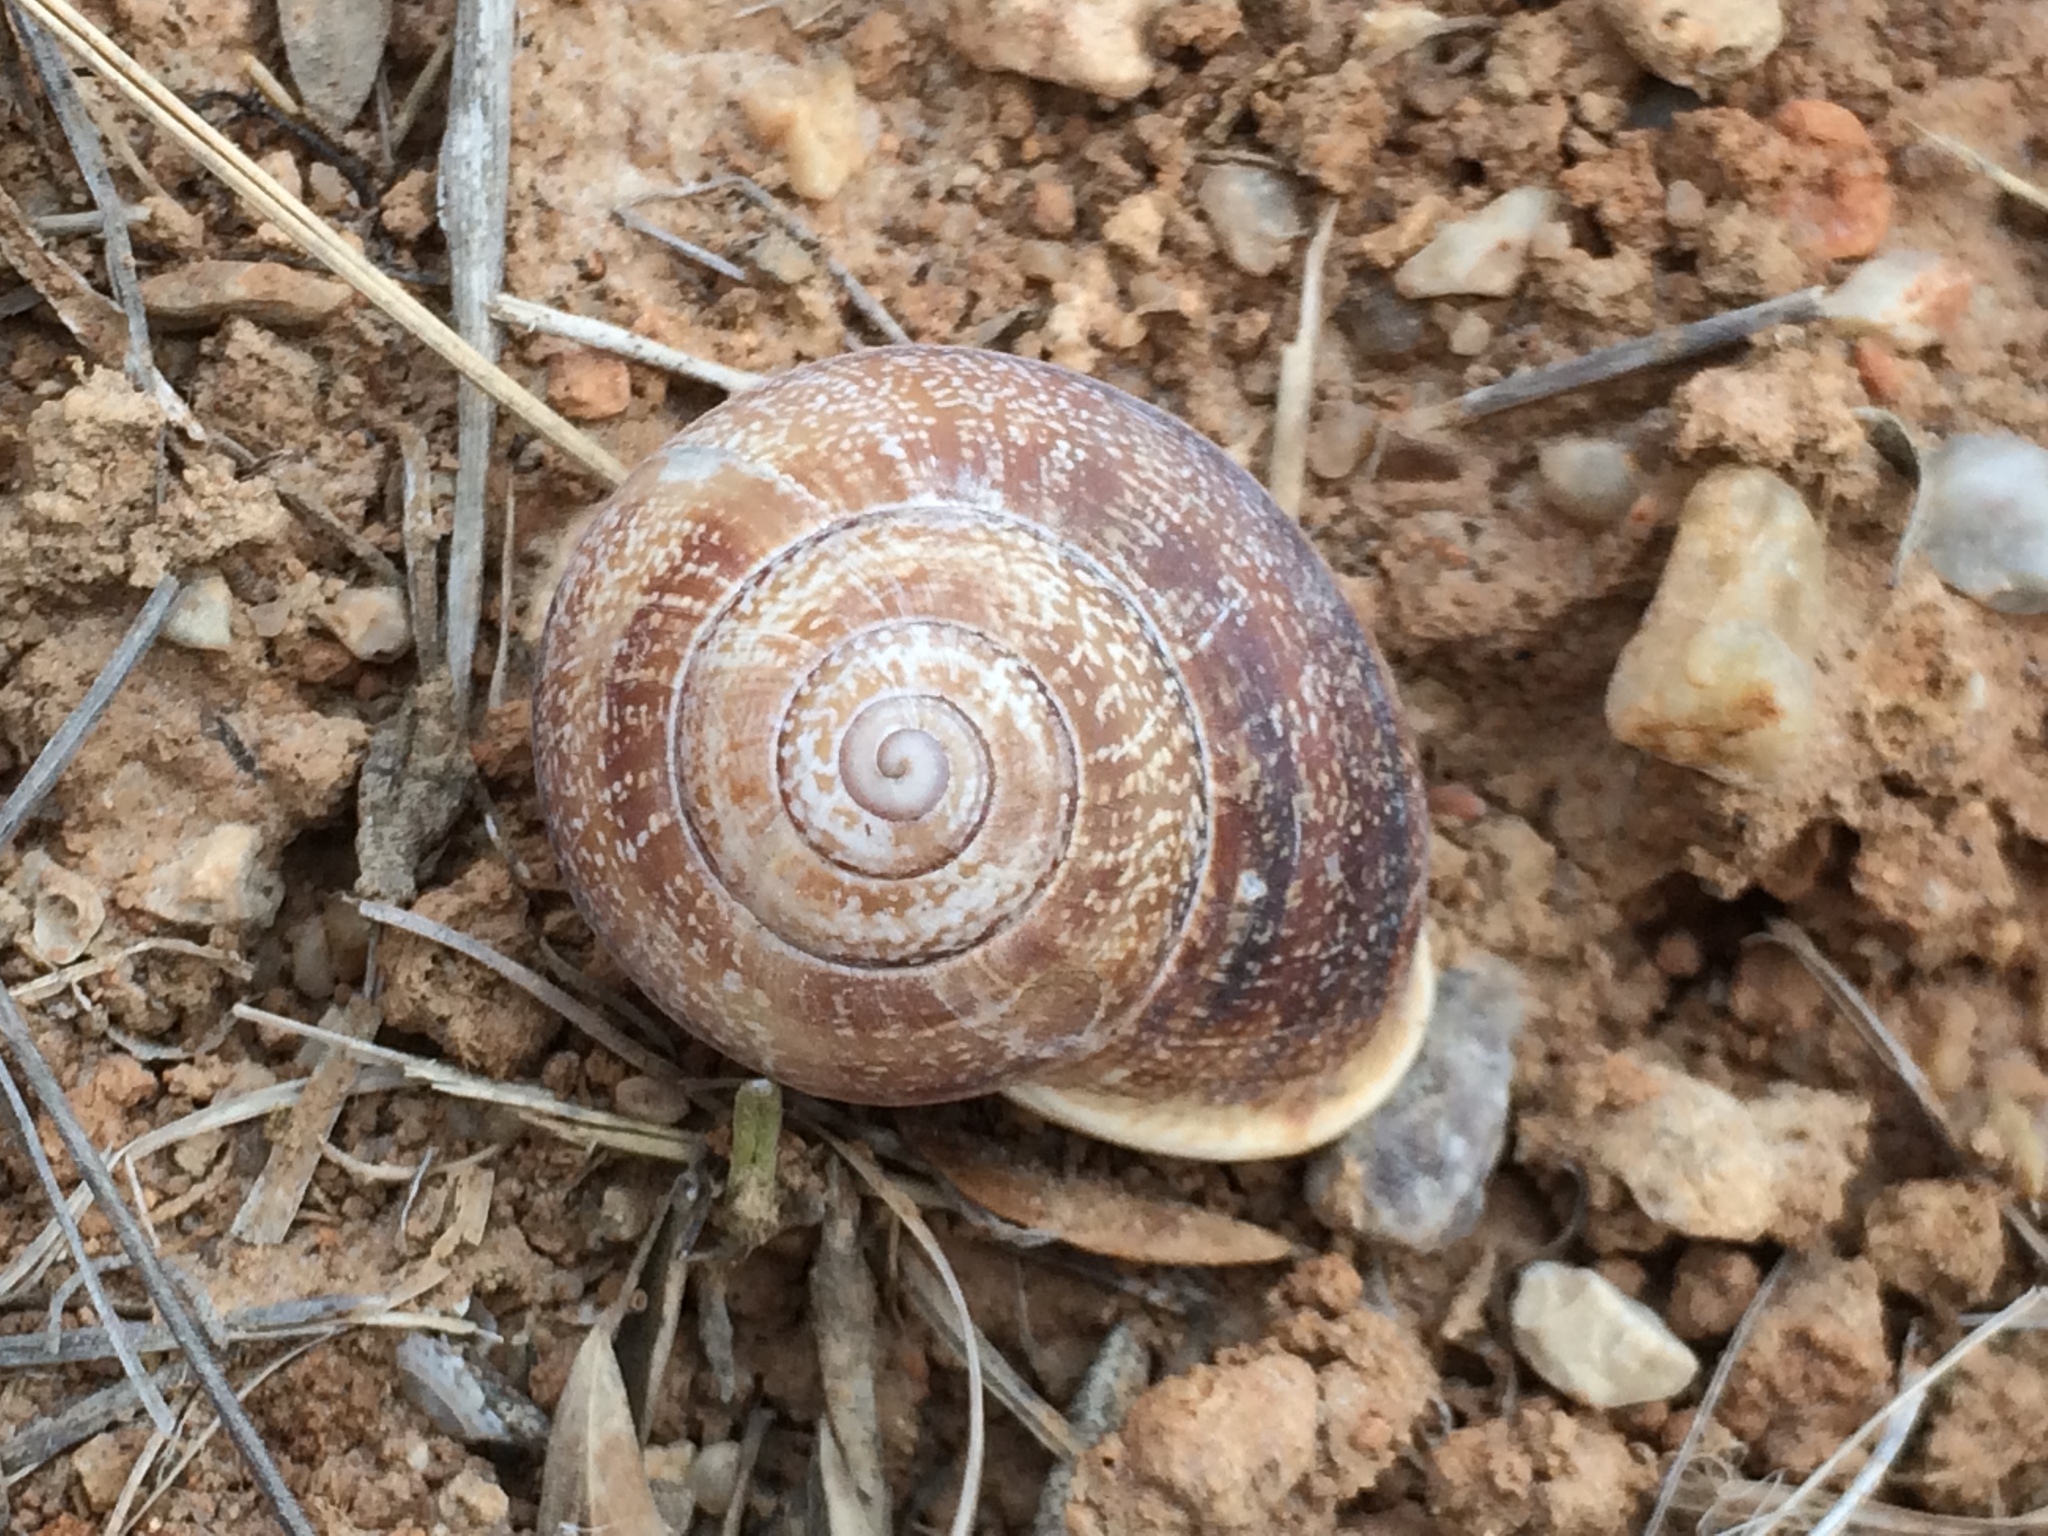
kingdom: Animalia
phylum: Mollusca
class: Gastropoda
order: Stylommatophora
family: Helicidae
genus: Otala
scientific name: Otala lactea
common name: Milk snail
